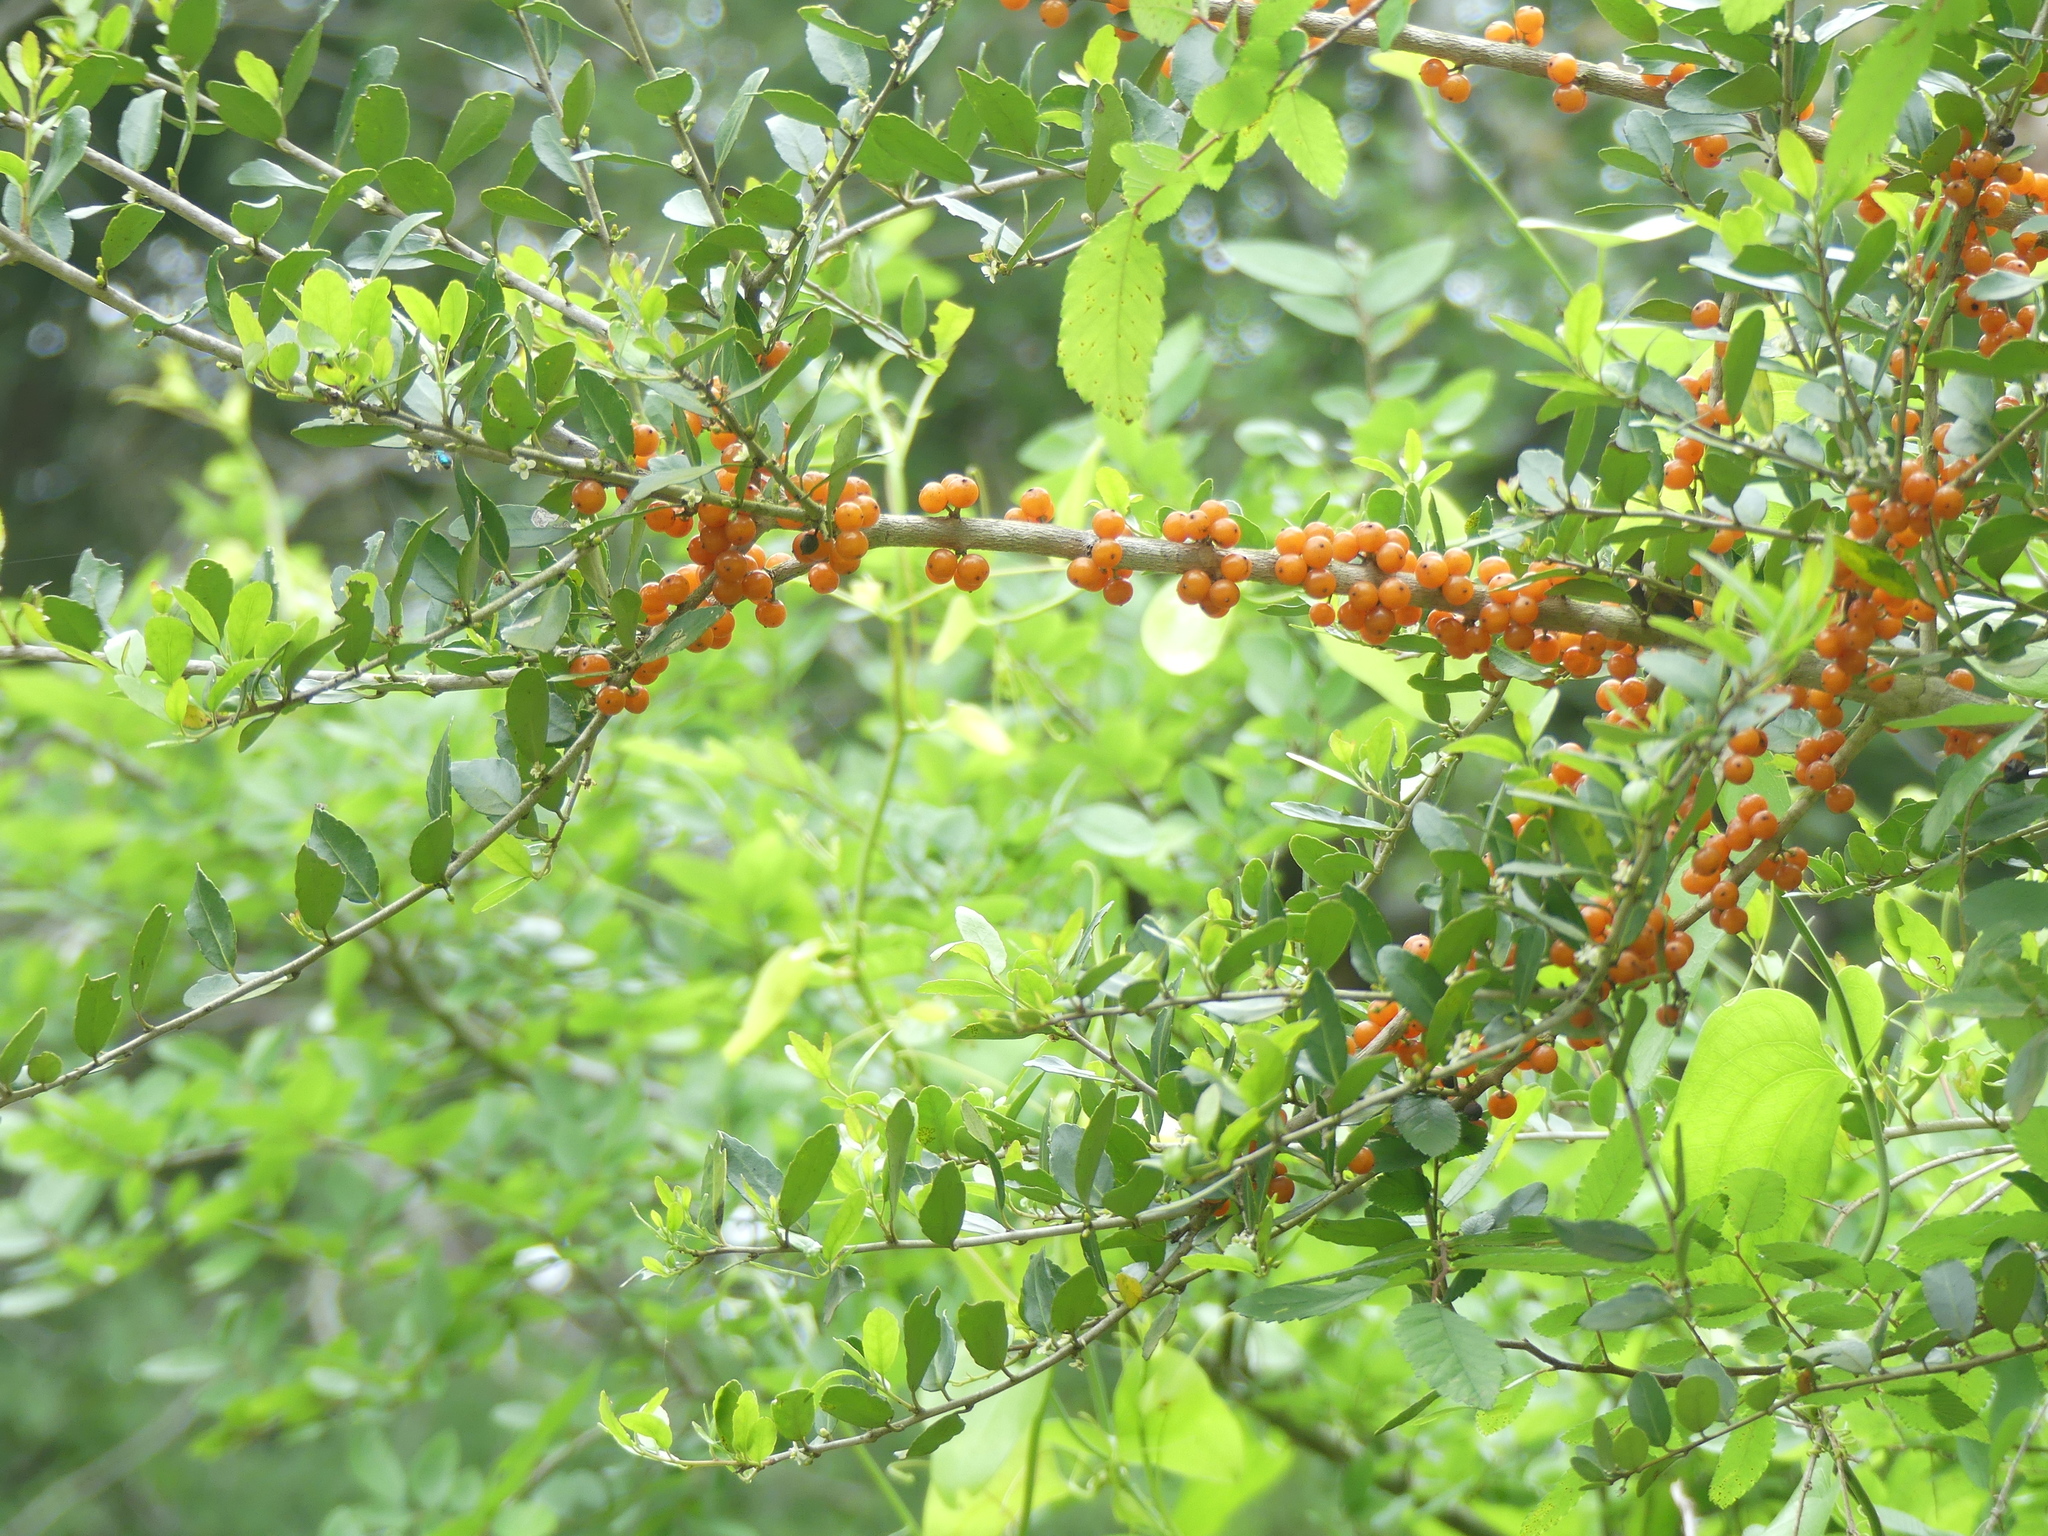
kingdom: Plantae
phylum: Tracheophyta
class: Magnoliopsida
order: Aquifoliales
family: Aquifoliaceae
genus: Ilex
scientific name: Ilex vomitoria
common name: Yaupon holly
